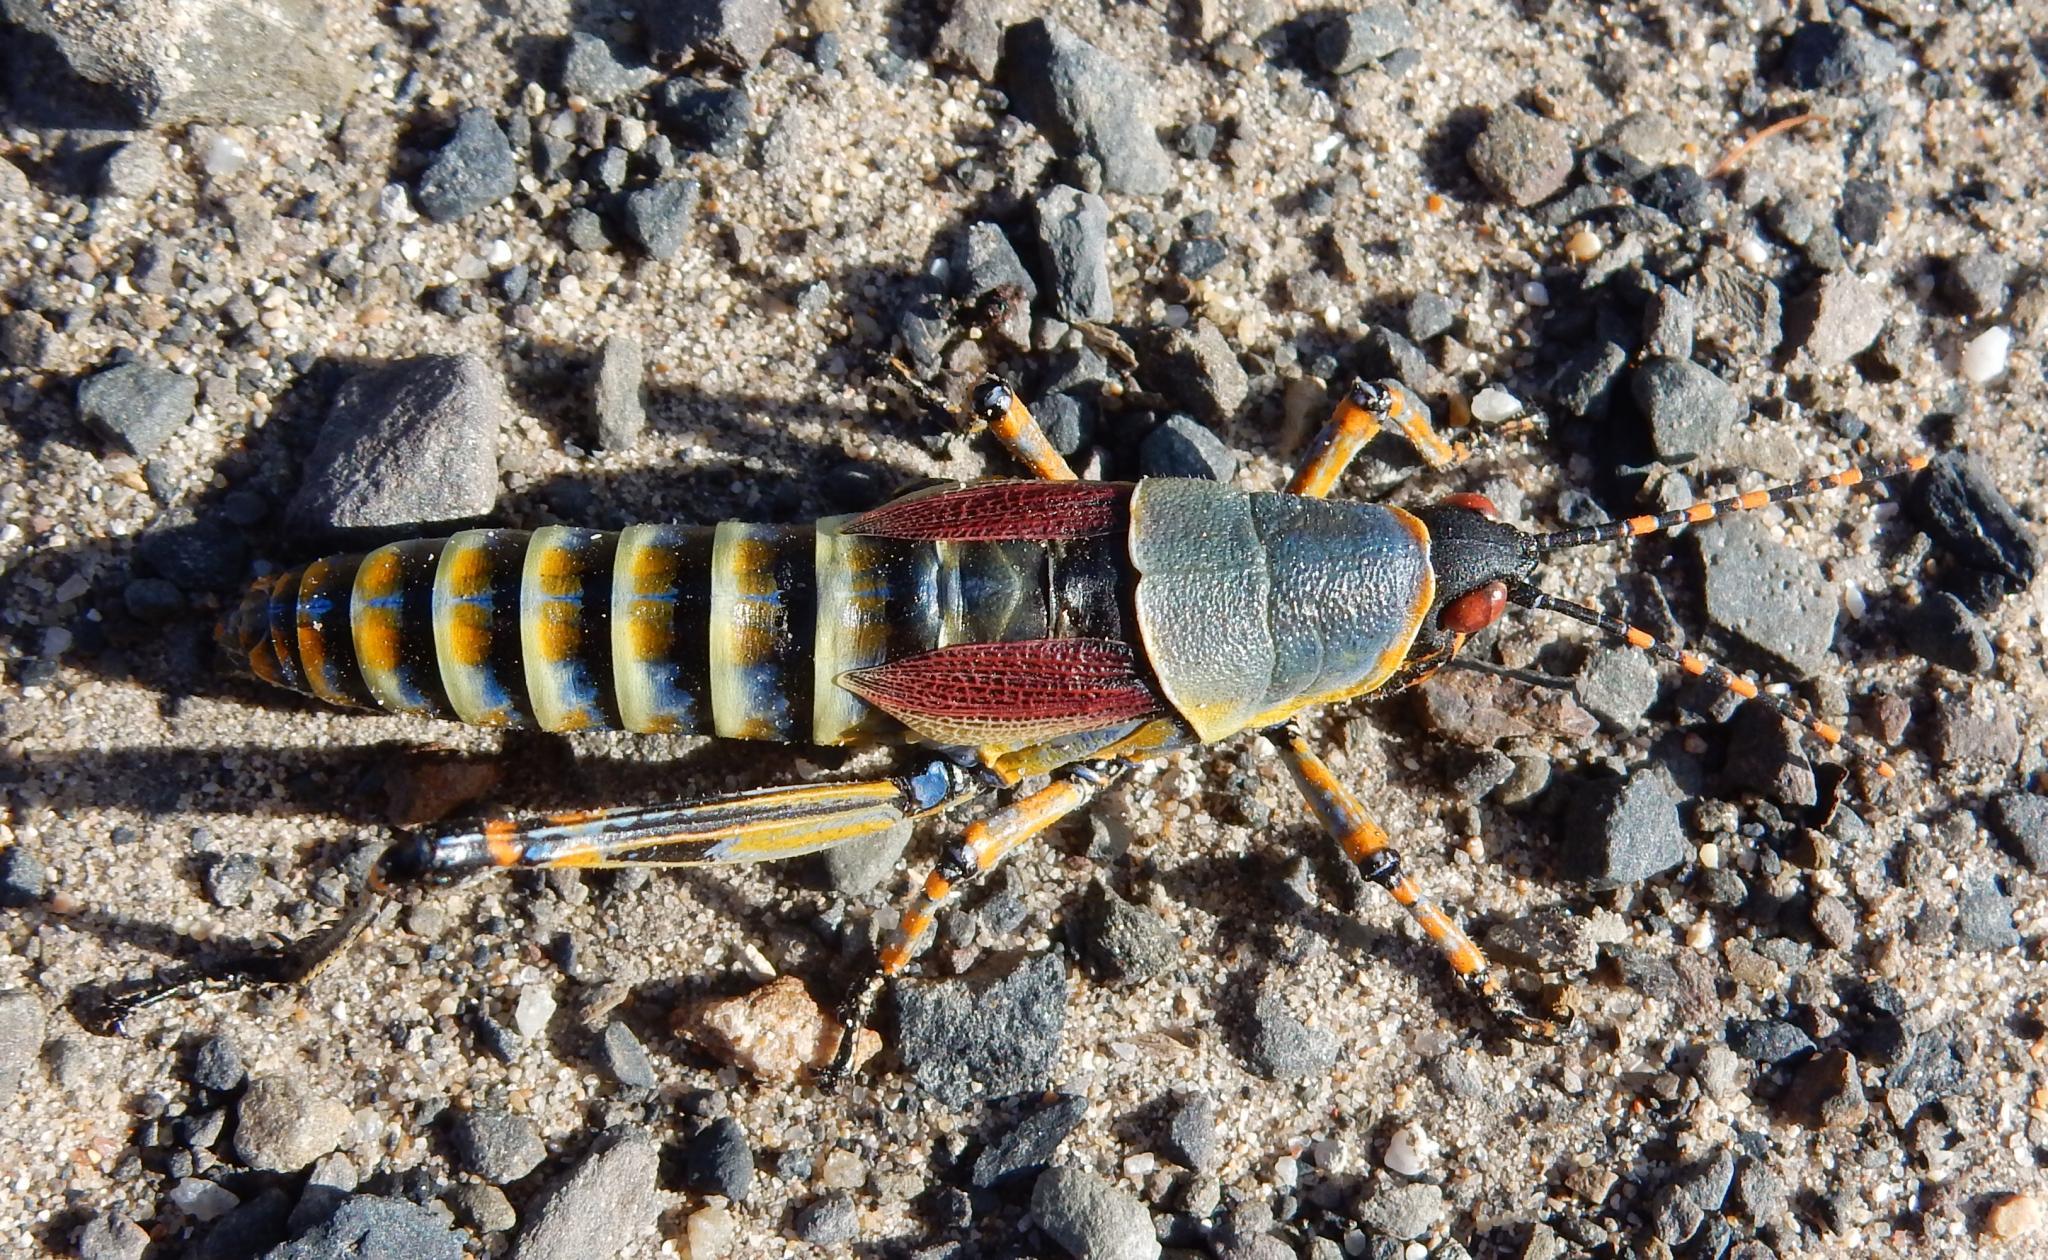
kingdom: Animalia
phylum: Arthropoda
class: Insecta
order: Orthoptera
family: Pyrgomorphidae
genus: Zonocerus
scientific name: Zonocerus elegans
